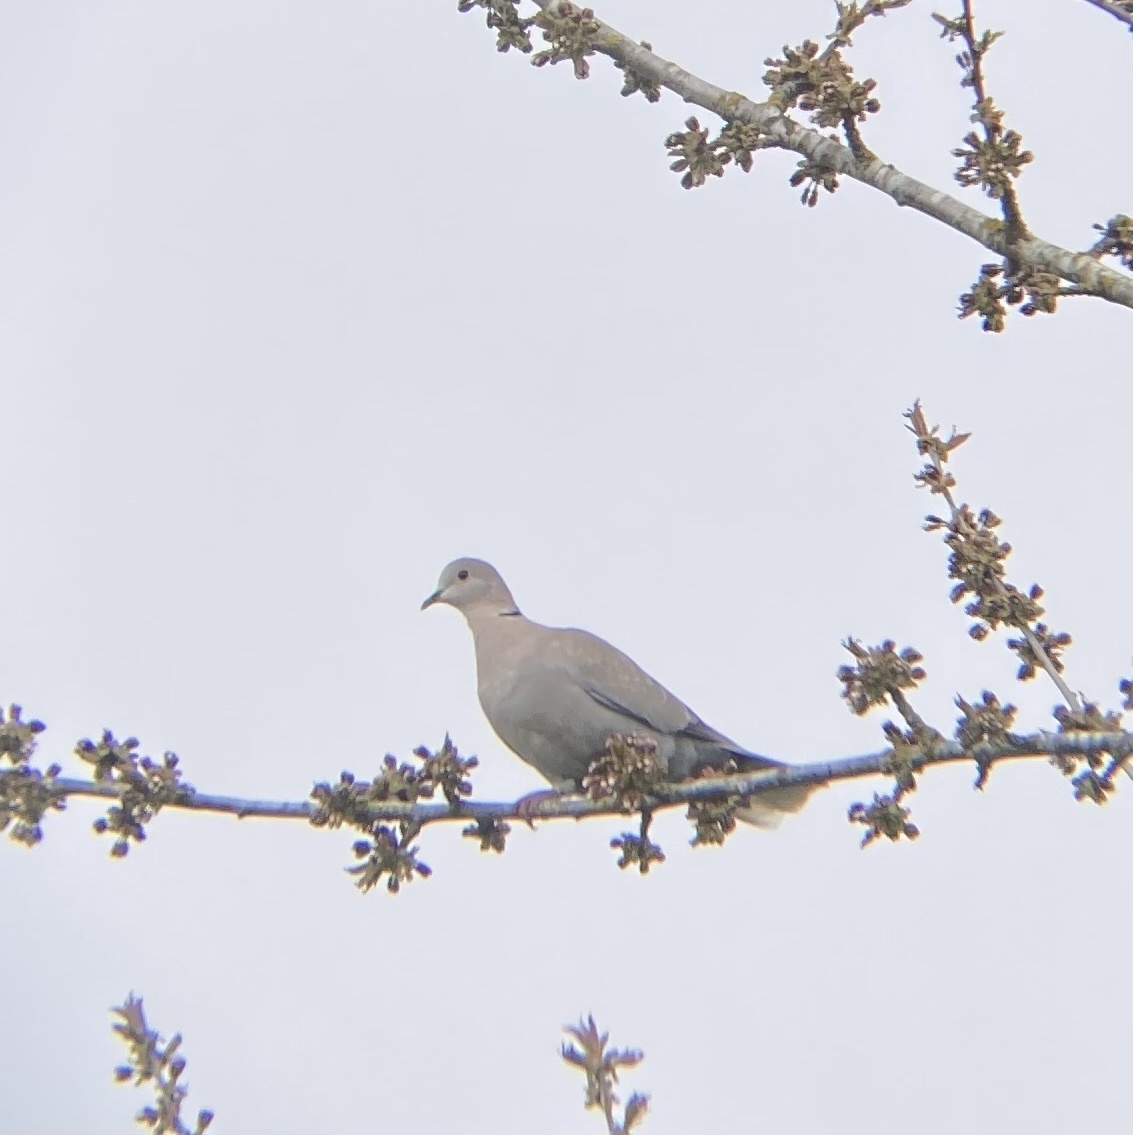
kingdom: Animalia
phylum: Chordata
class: Aves
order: Columbiformes
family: Columbidae
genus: Streptopelia
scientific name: Streptopelia decaocto
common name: Eurasian collared dove
